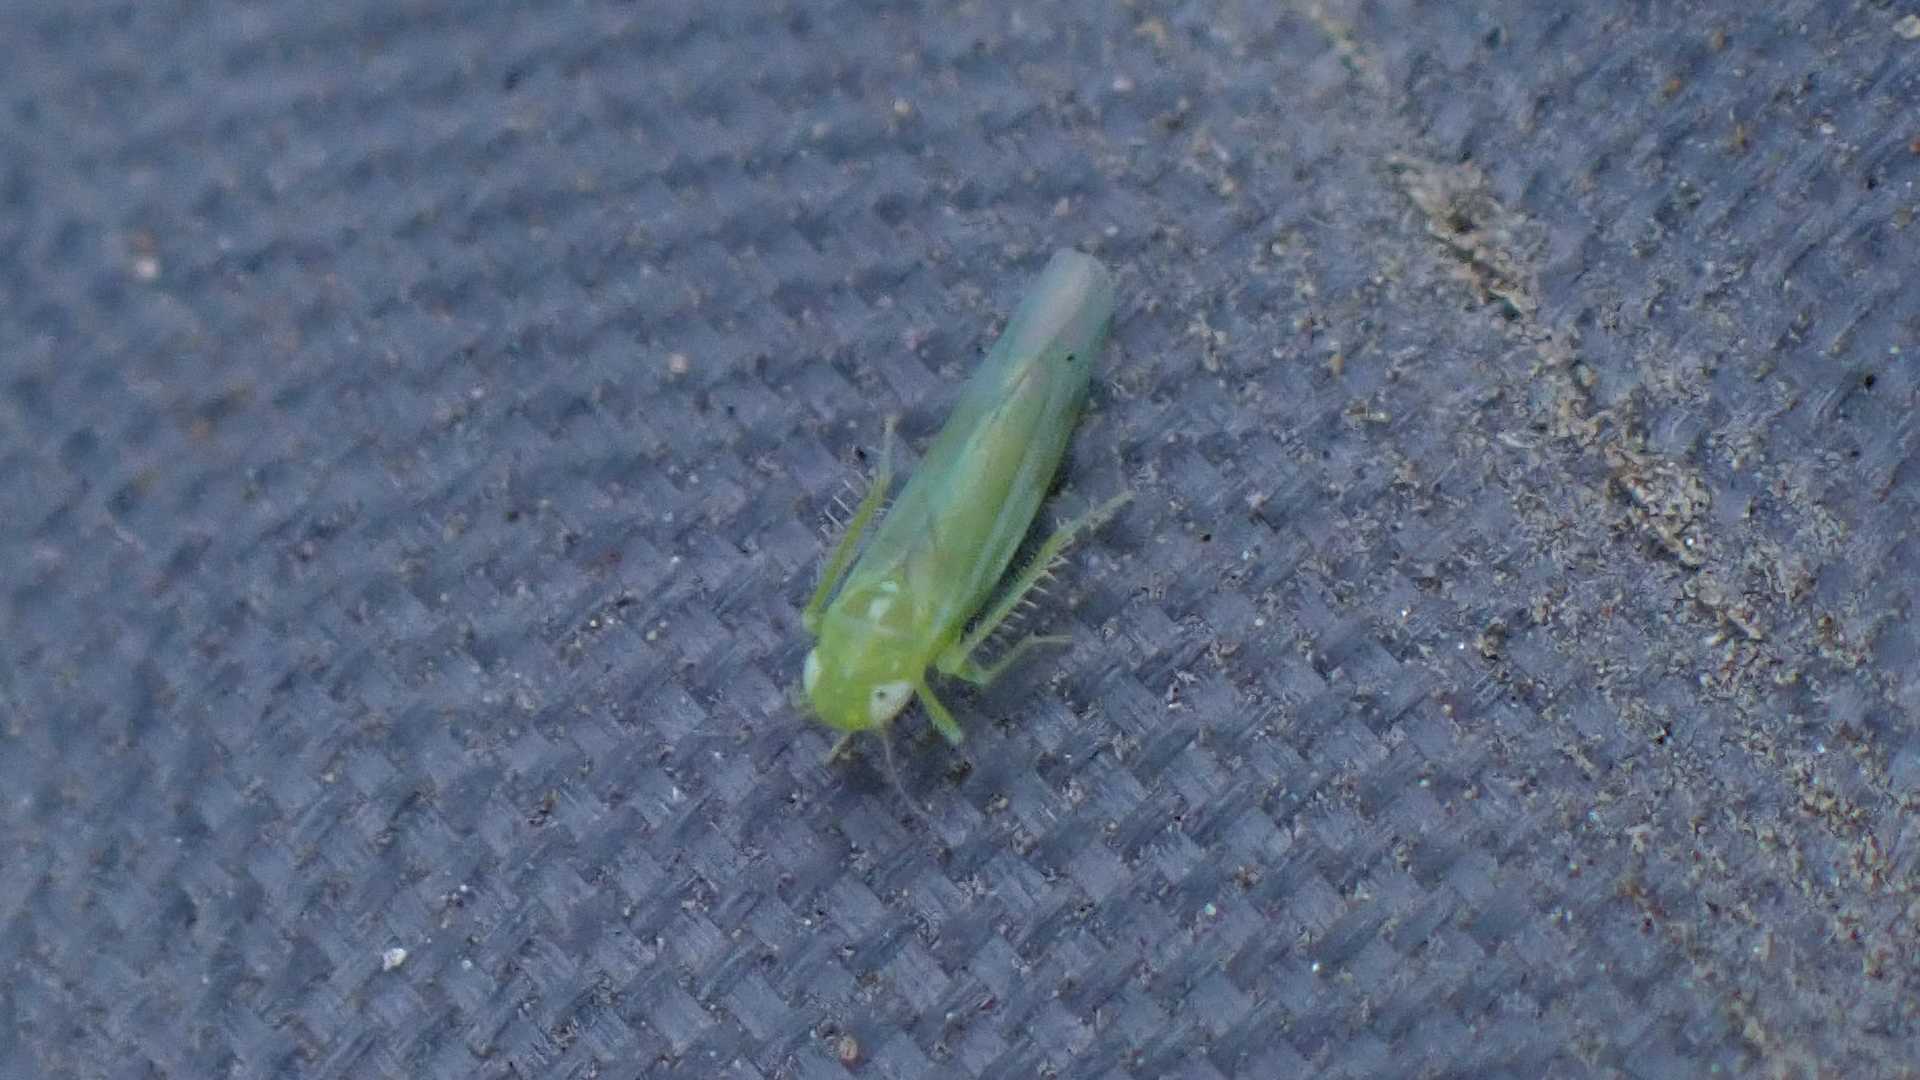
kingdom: Animalia
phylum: Arthropoda
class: Insecta
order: Hemiptera
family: Cicadellidae
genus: Hebata
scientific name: Hebata vitis
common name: The smaller green leafhopper
